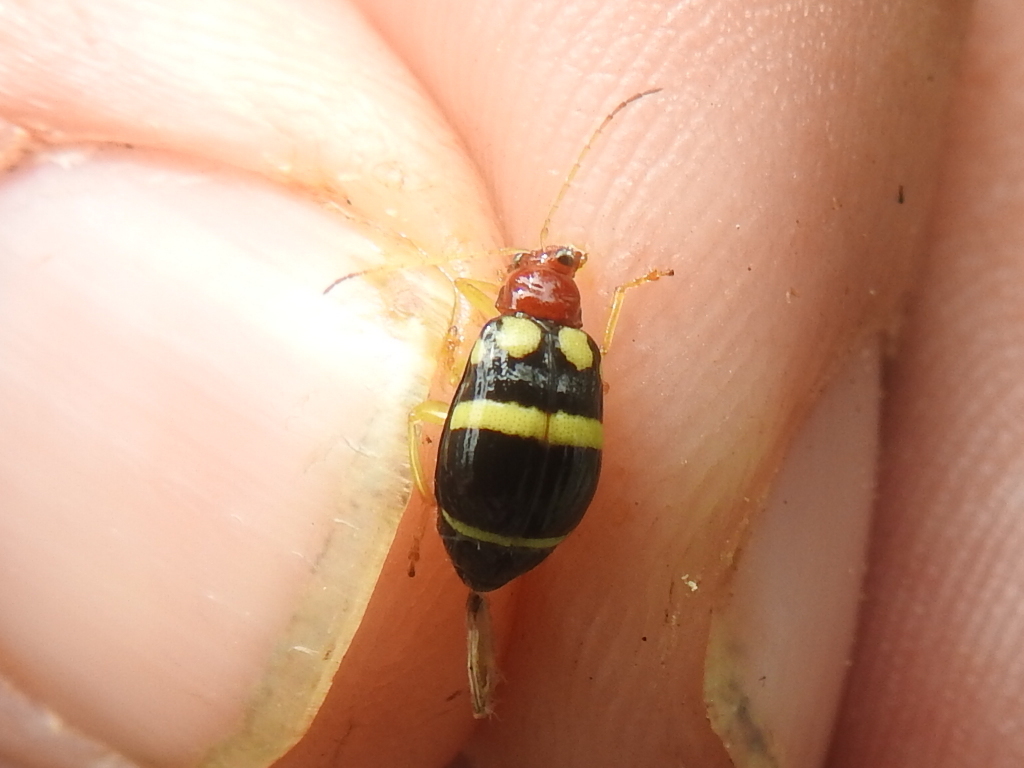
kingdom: Animalia
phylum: Arthropoda
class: Insecta
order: Coleoptera
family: Chrysomelidae
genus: Gynandrobrotica
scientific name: Gynandrobrotica
